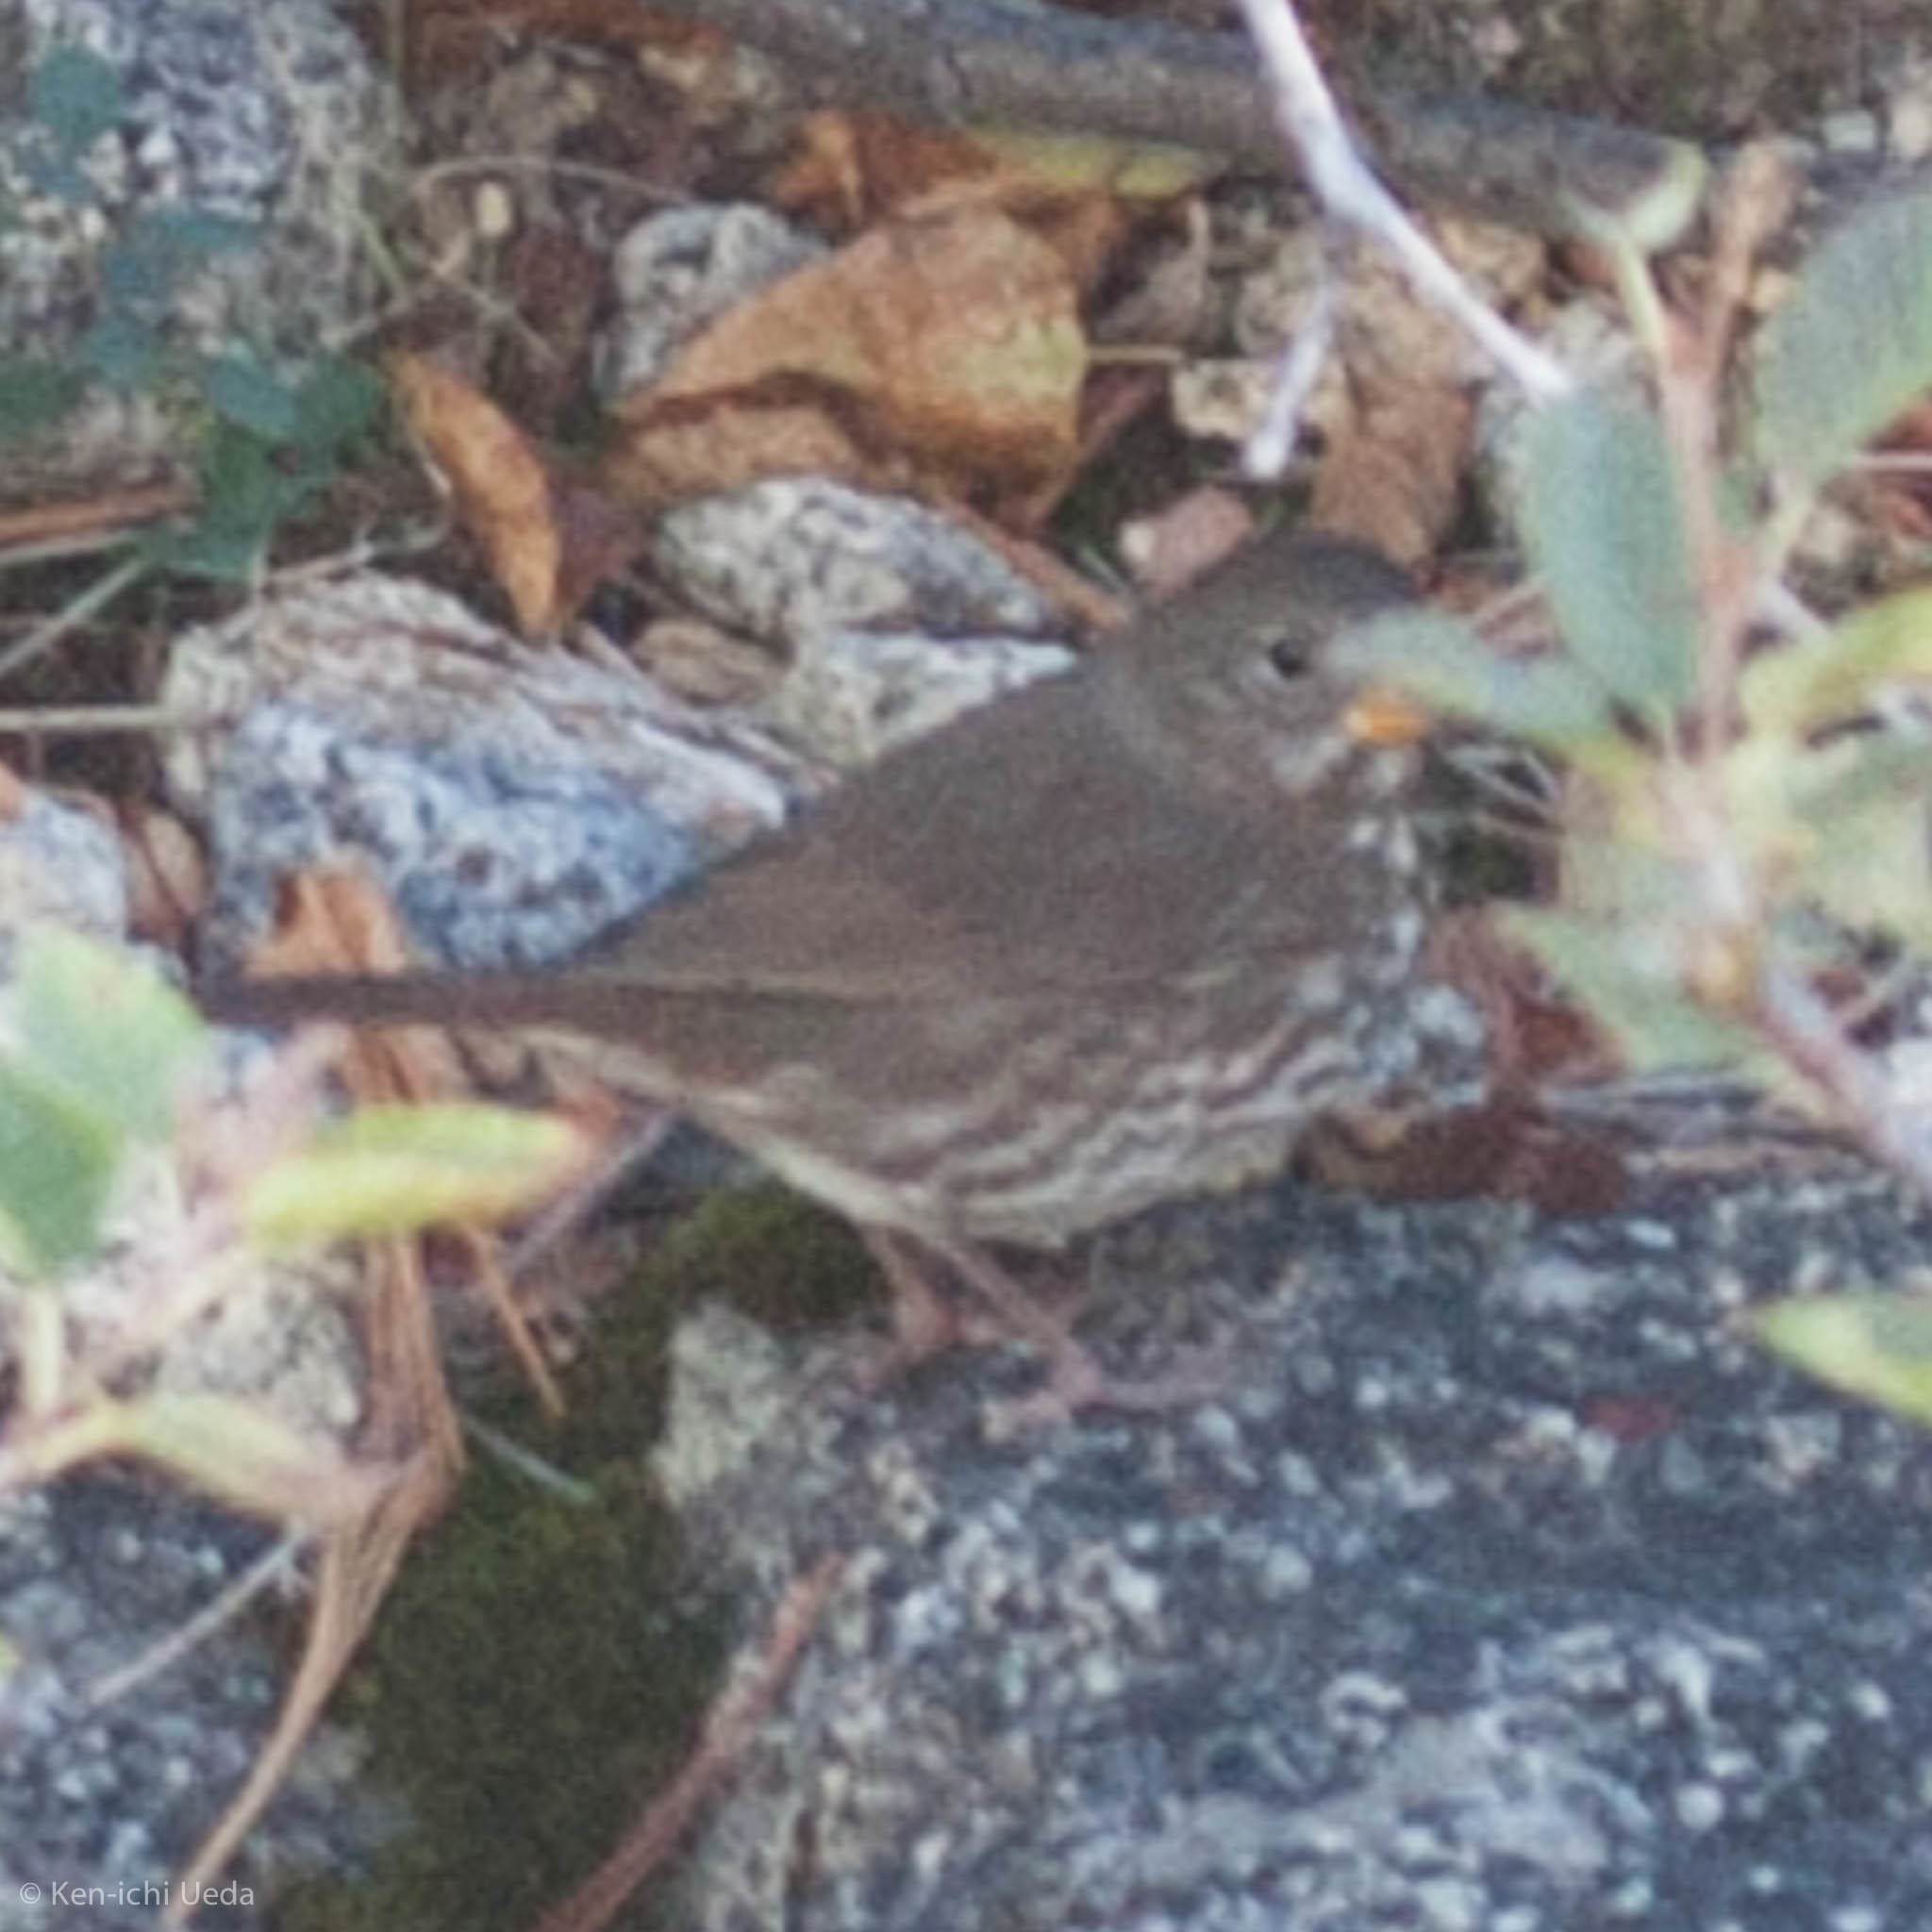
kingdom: Animalia
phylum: Chordata
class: Aves
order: Passeriformes
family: Passerellidae
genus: Passerella
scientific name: Passerella iliaca
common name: Fox sparrow
